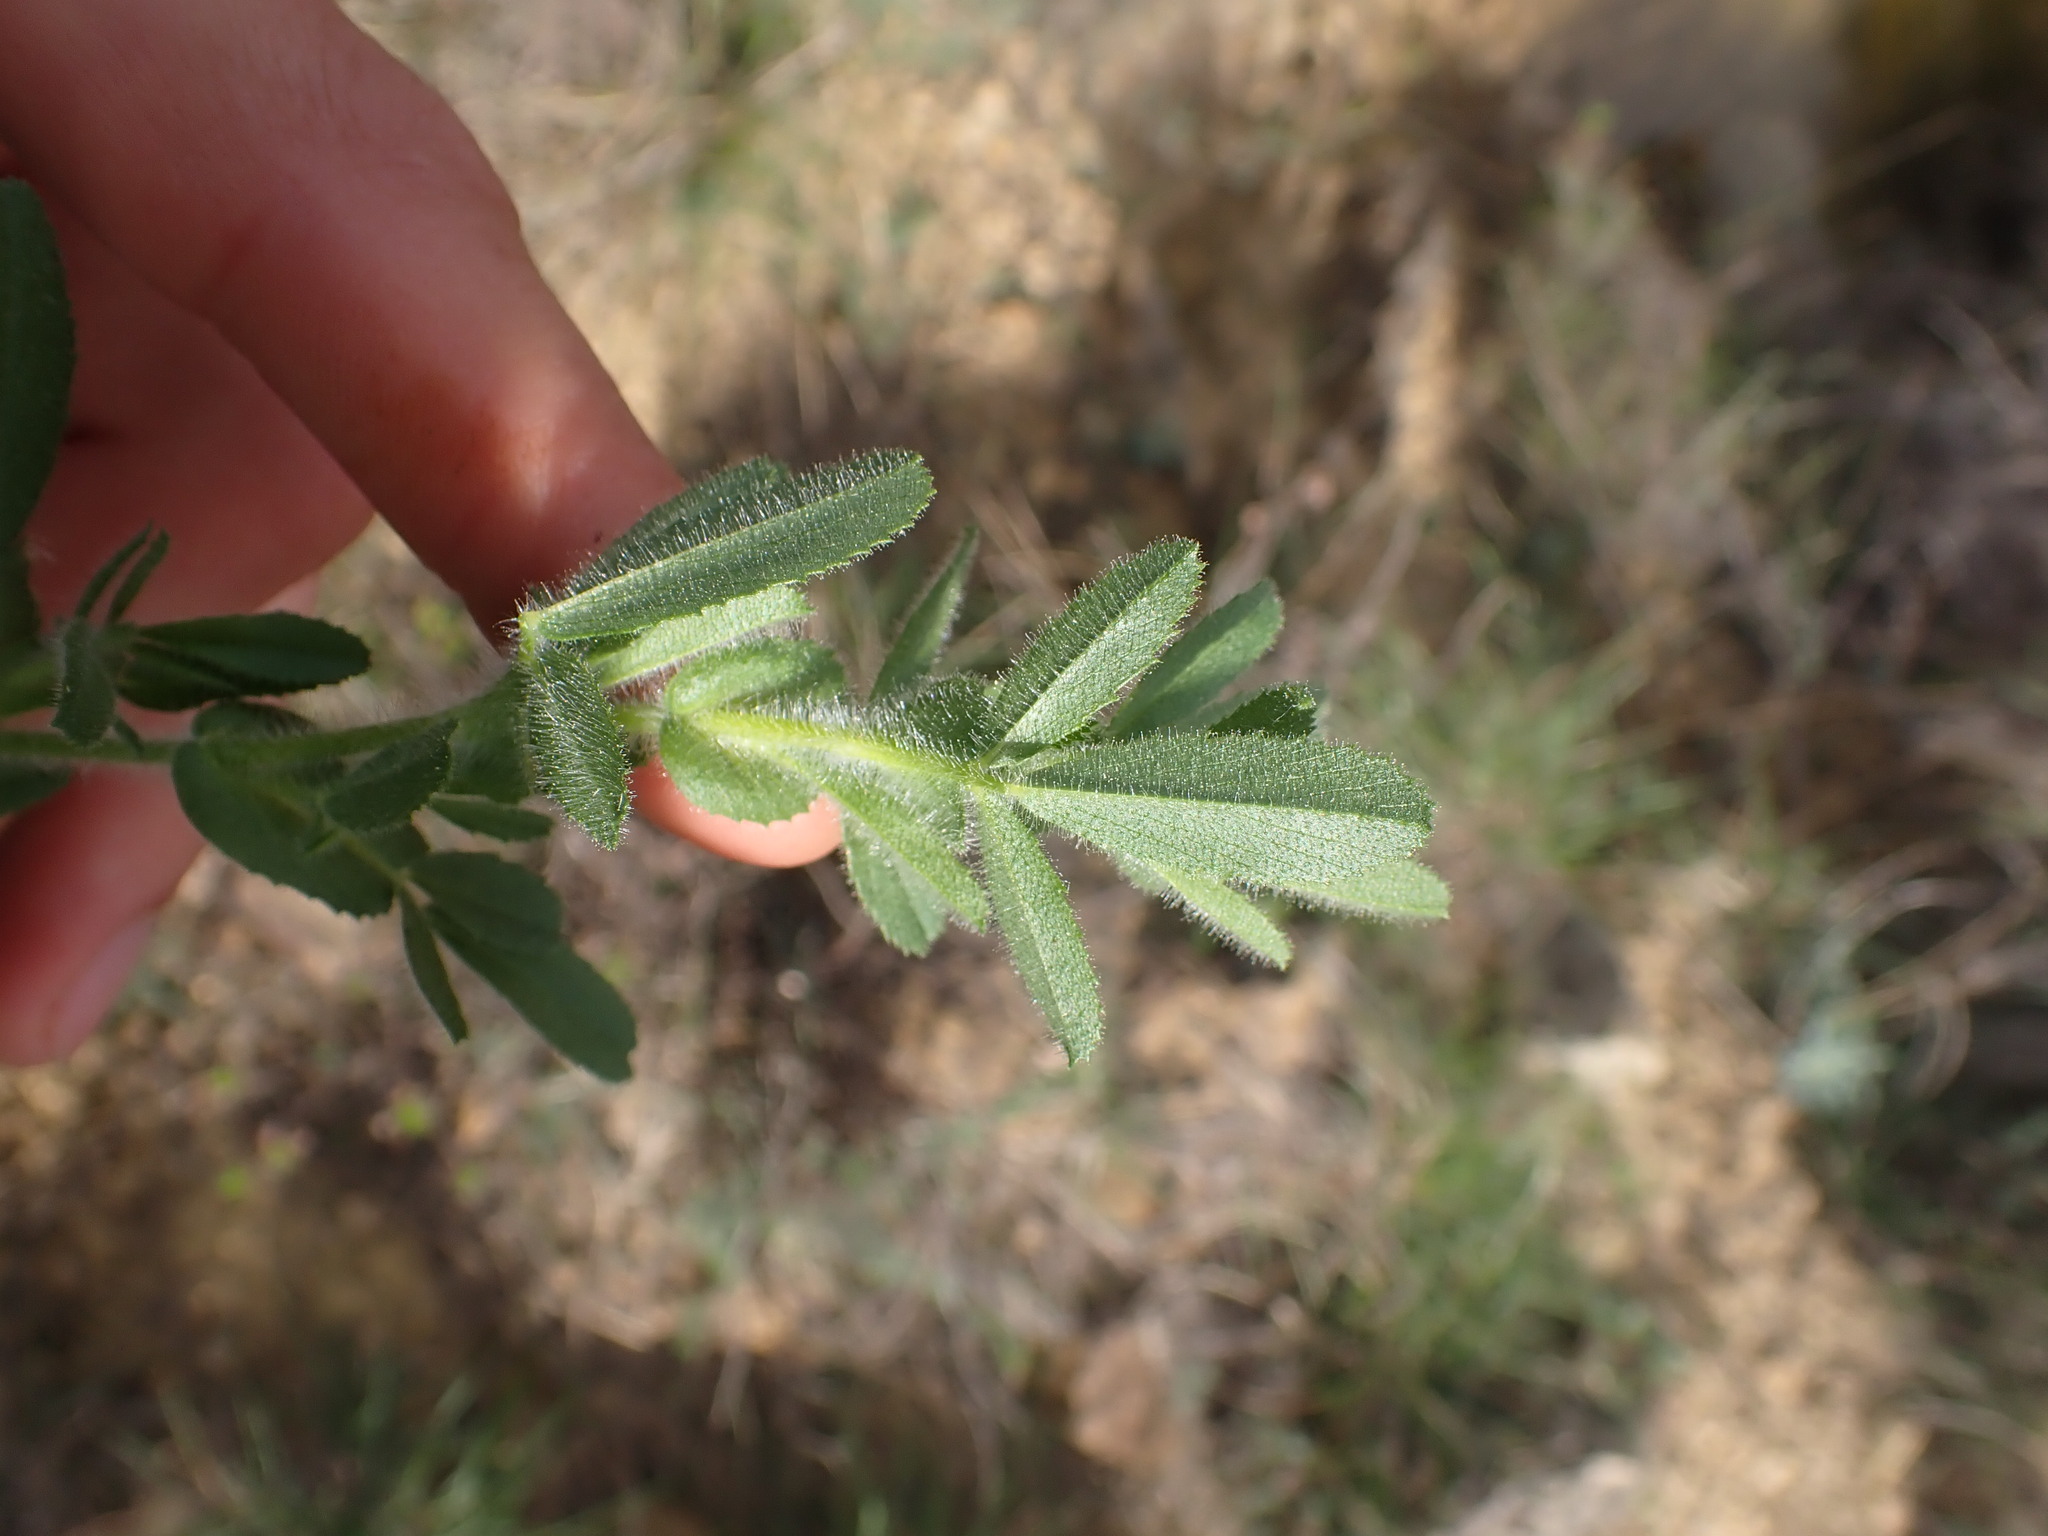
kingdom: Plantae
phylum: Tracheophyta
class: Magnoliopsida
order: Fabales
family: Fabaceae
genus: Ononis
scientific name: Ononis natrix
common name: Yellow restharrow
